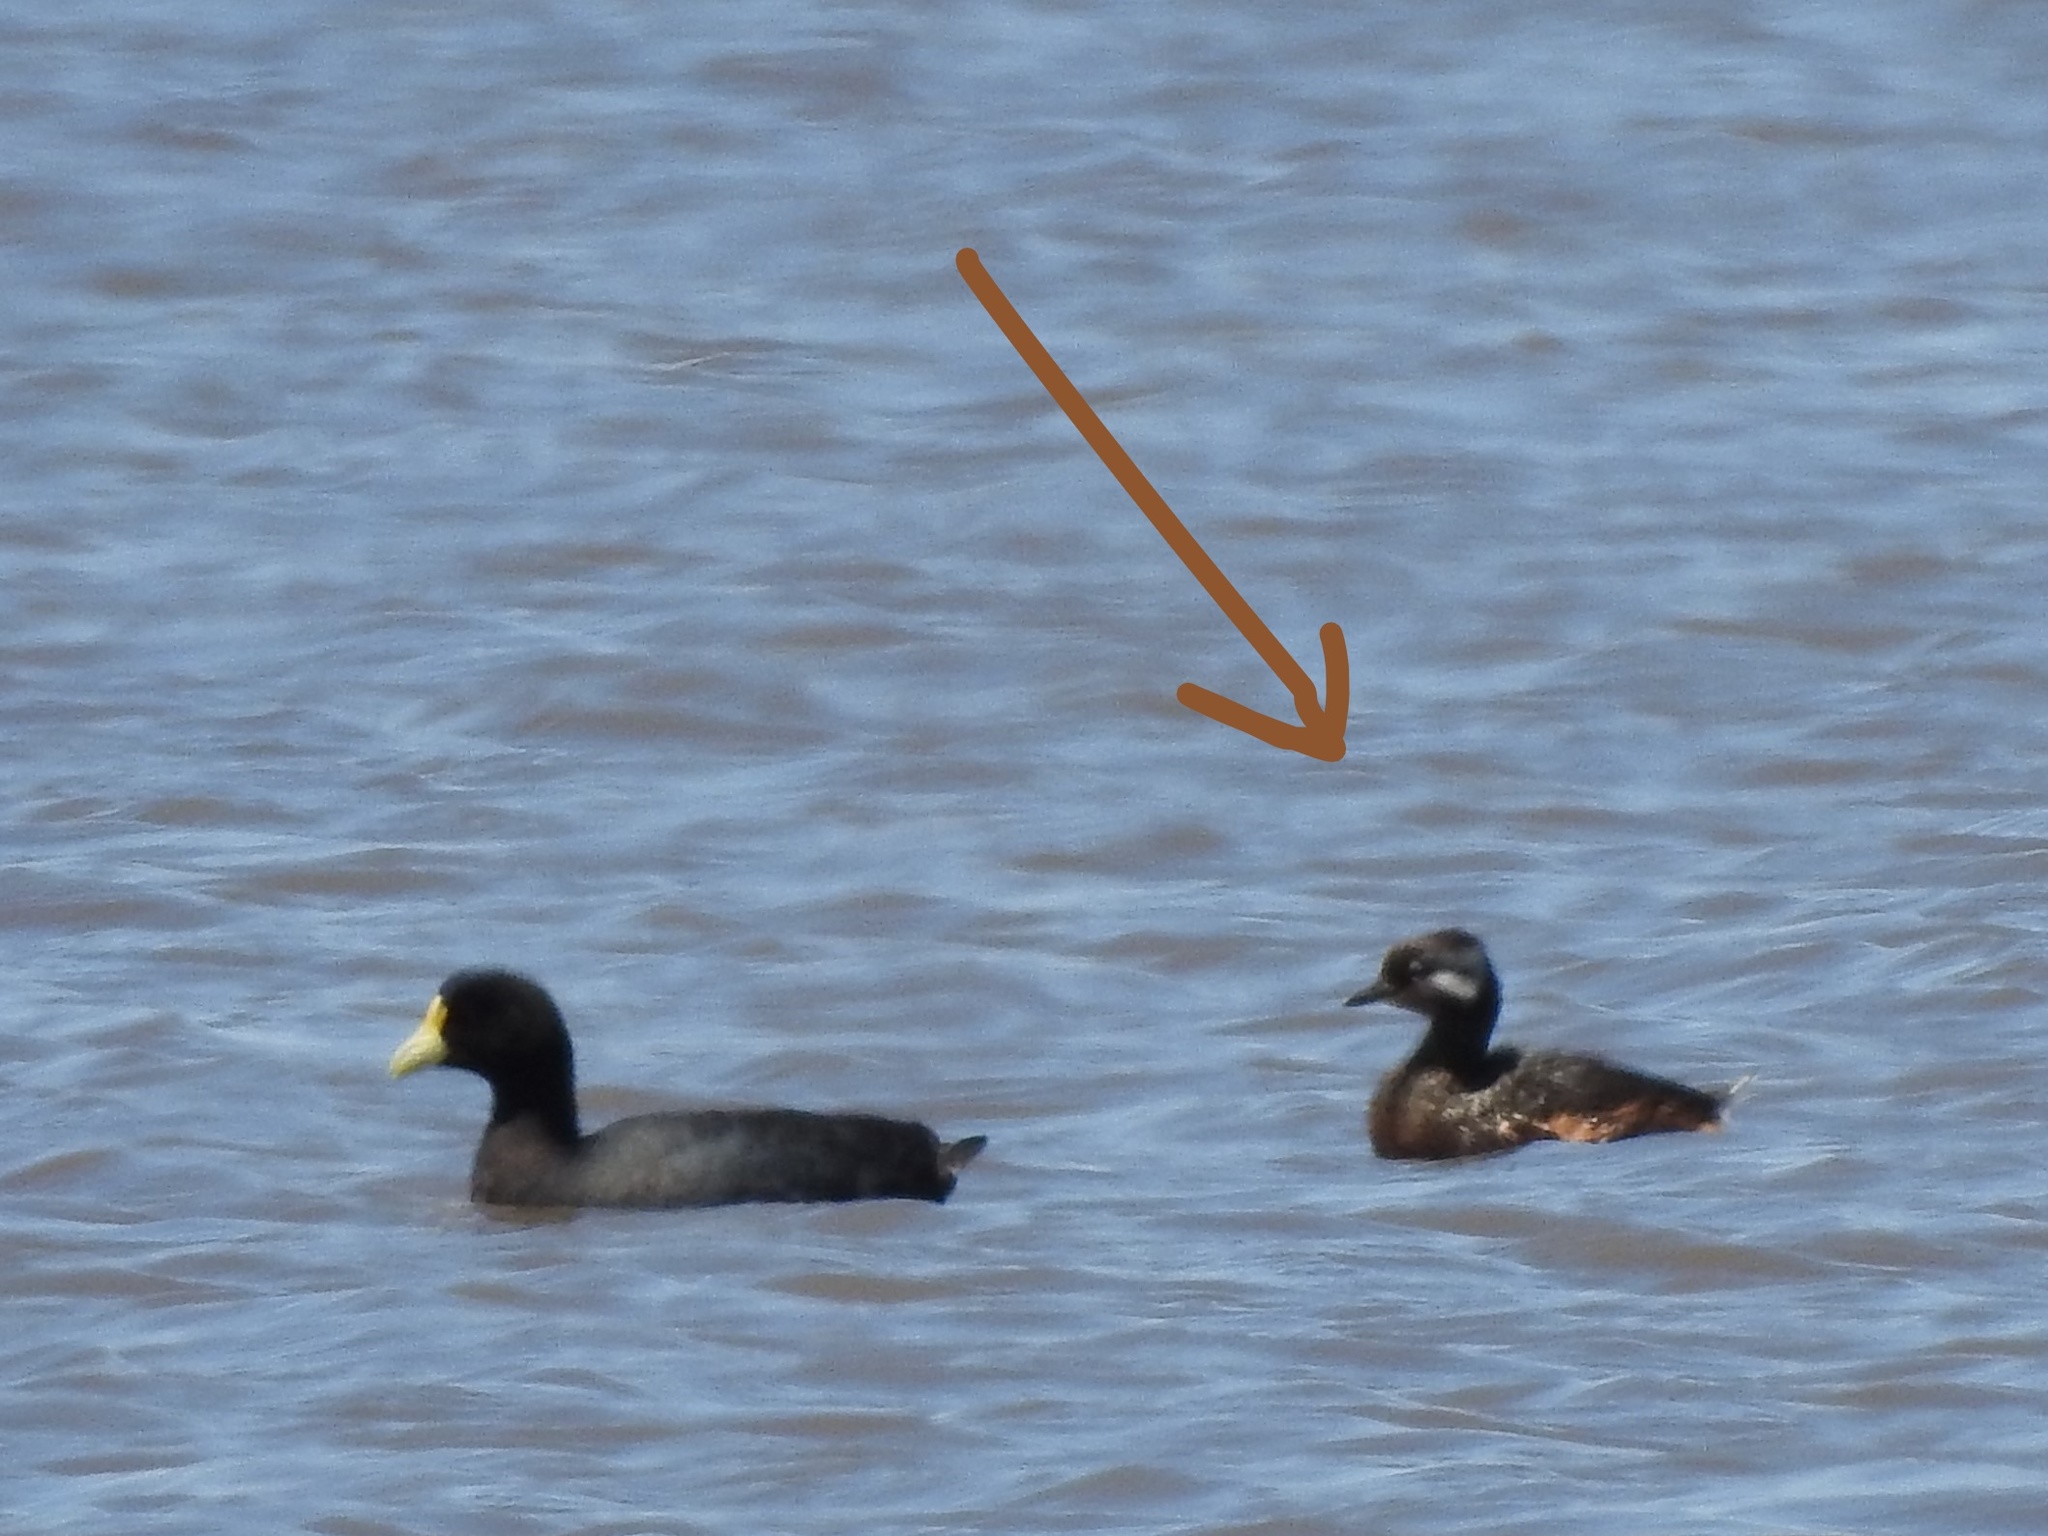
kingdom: Animalia
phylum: Chordata
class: Aves
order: Podicipediformes
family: Podicipedidae
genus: Rollandia
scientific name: Rollandia rolland
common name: White-tufted grebe
